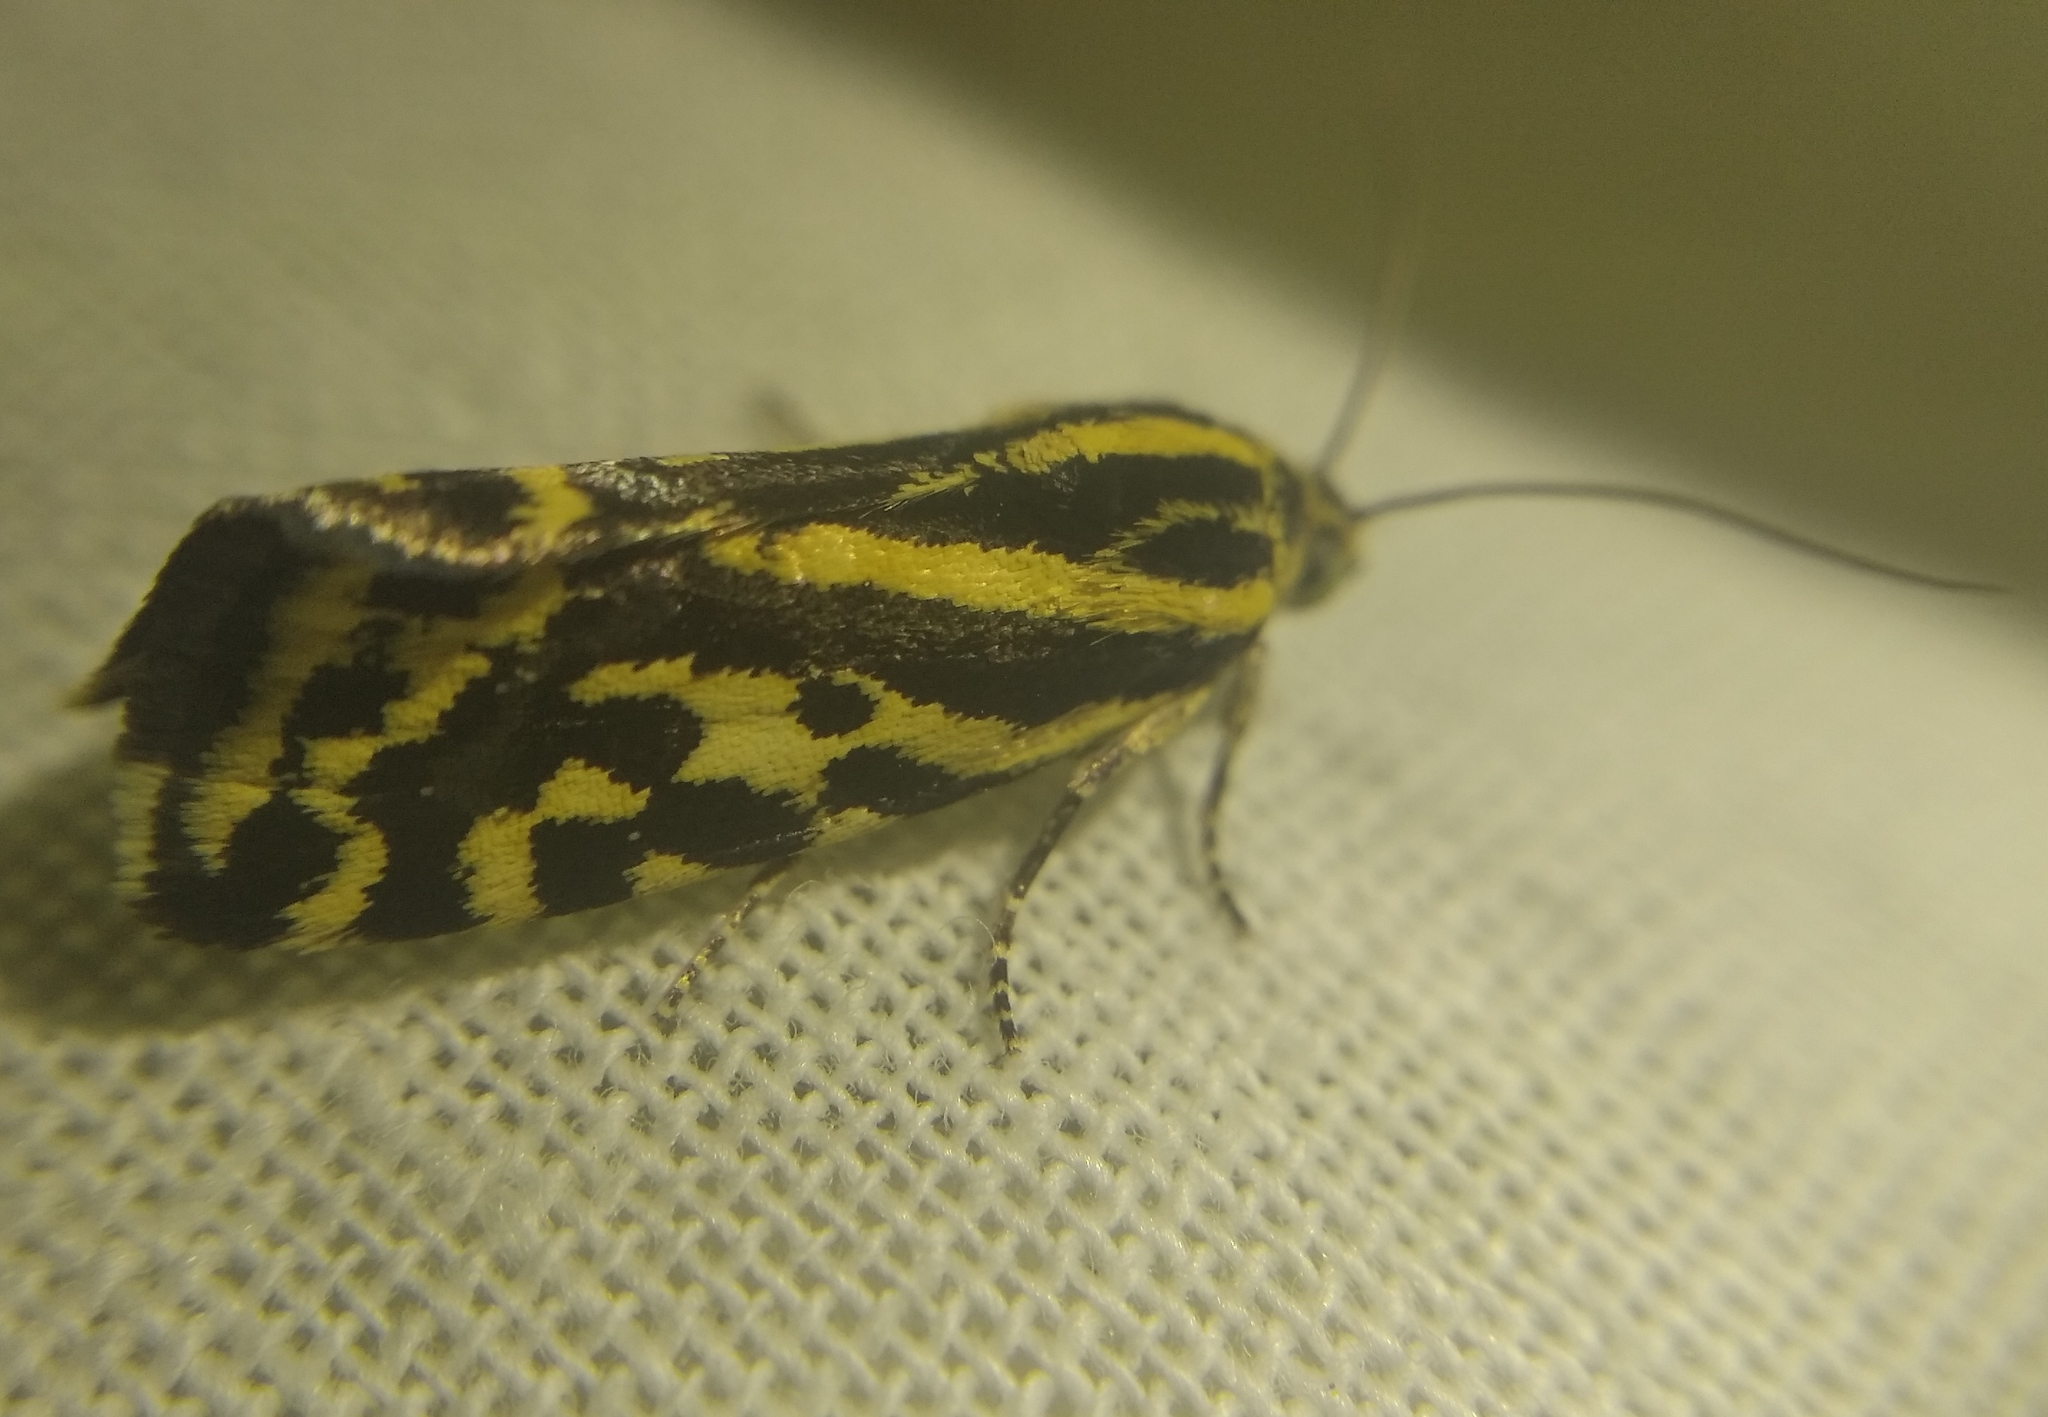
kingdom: Animalia
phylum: Arthropoda
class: Insecta
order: Lepidoptera
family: Noctuidae
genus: Acontia
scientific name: Acontia trabealis
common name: Spotted sulphur
